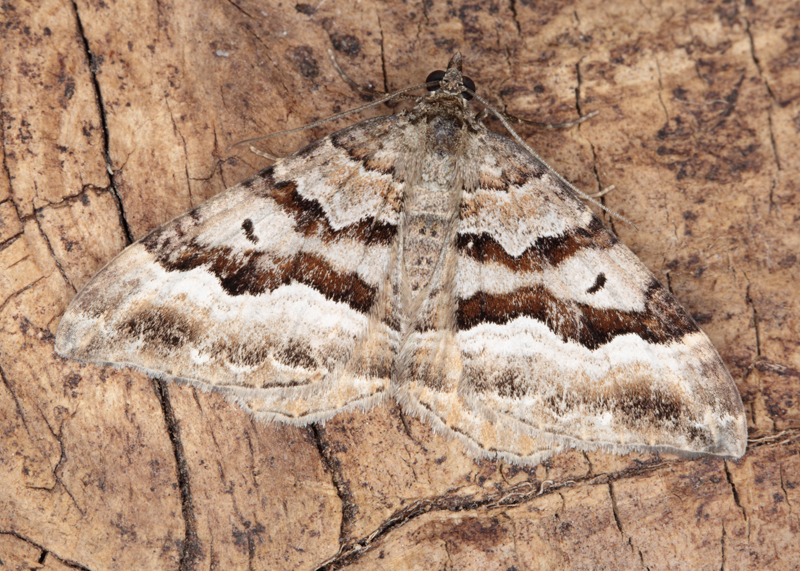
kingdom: Animalia
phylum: Arthropoda
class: Insecta
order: Lepidoptera
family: Geometridae
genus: Hydriomena
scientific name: Hydriomena deltoidata
